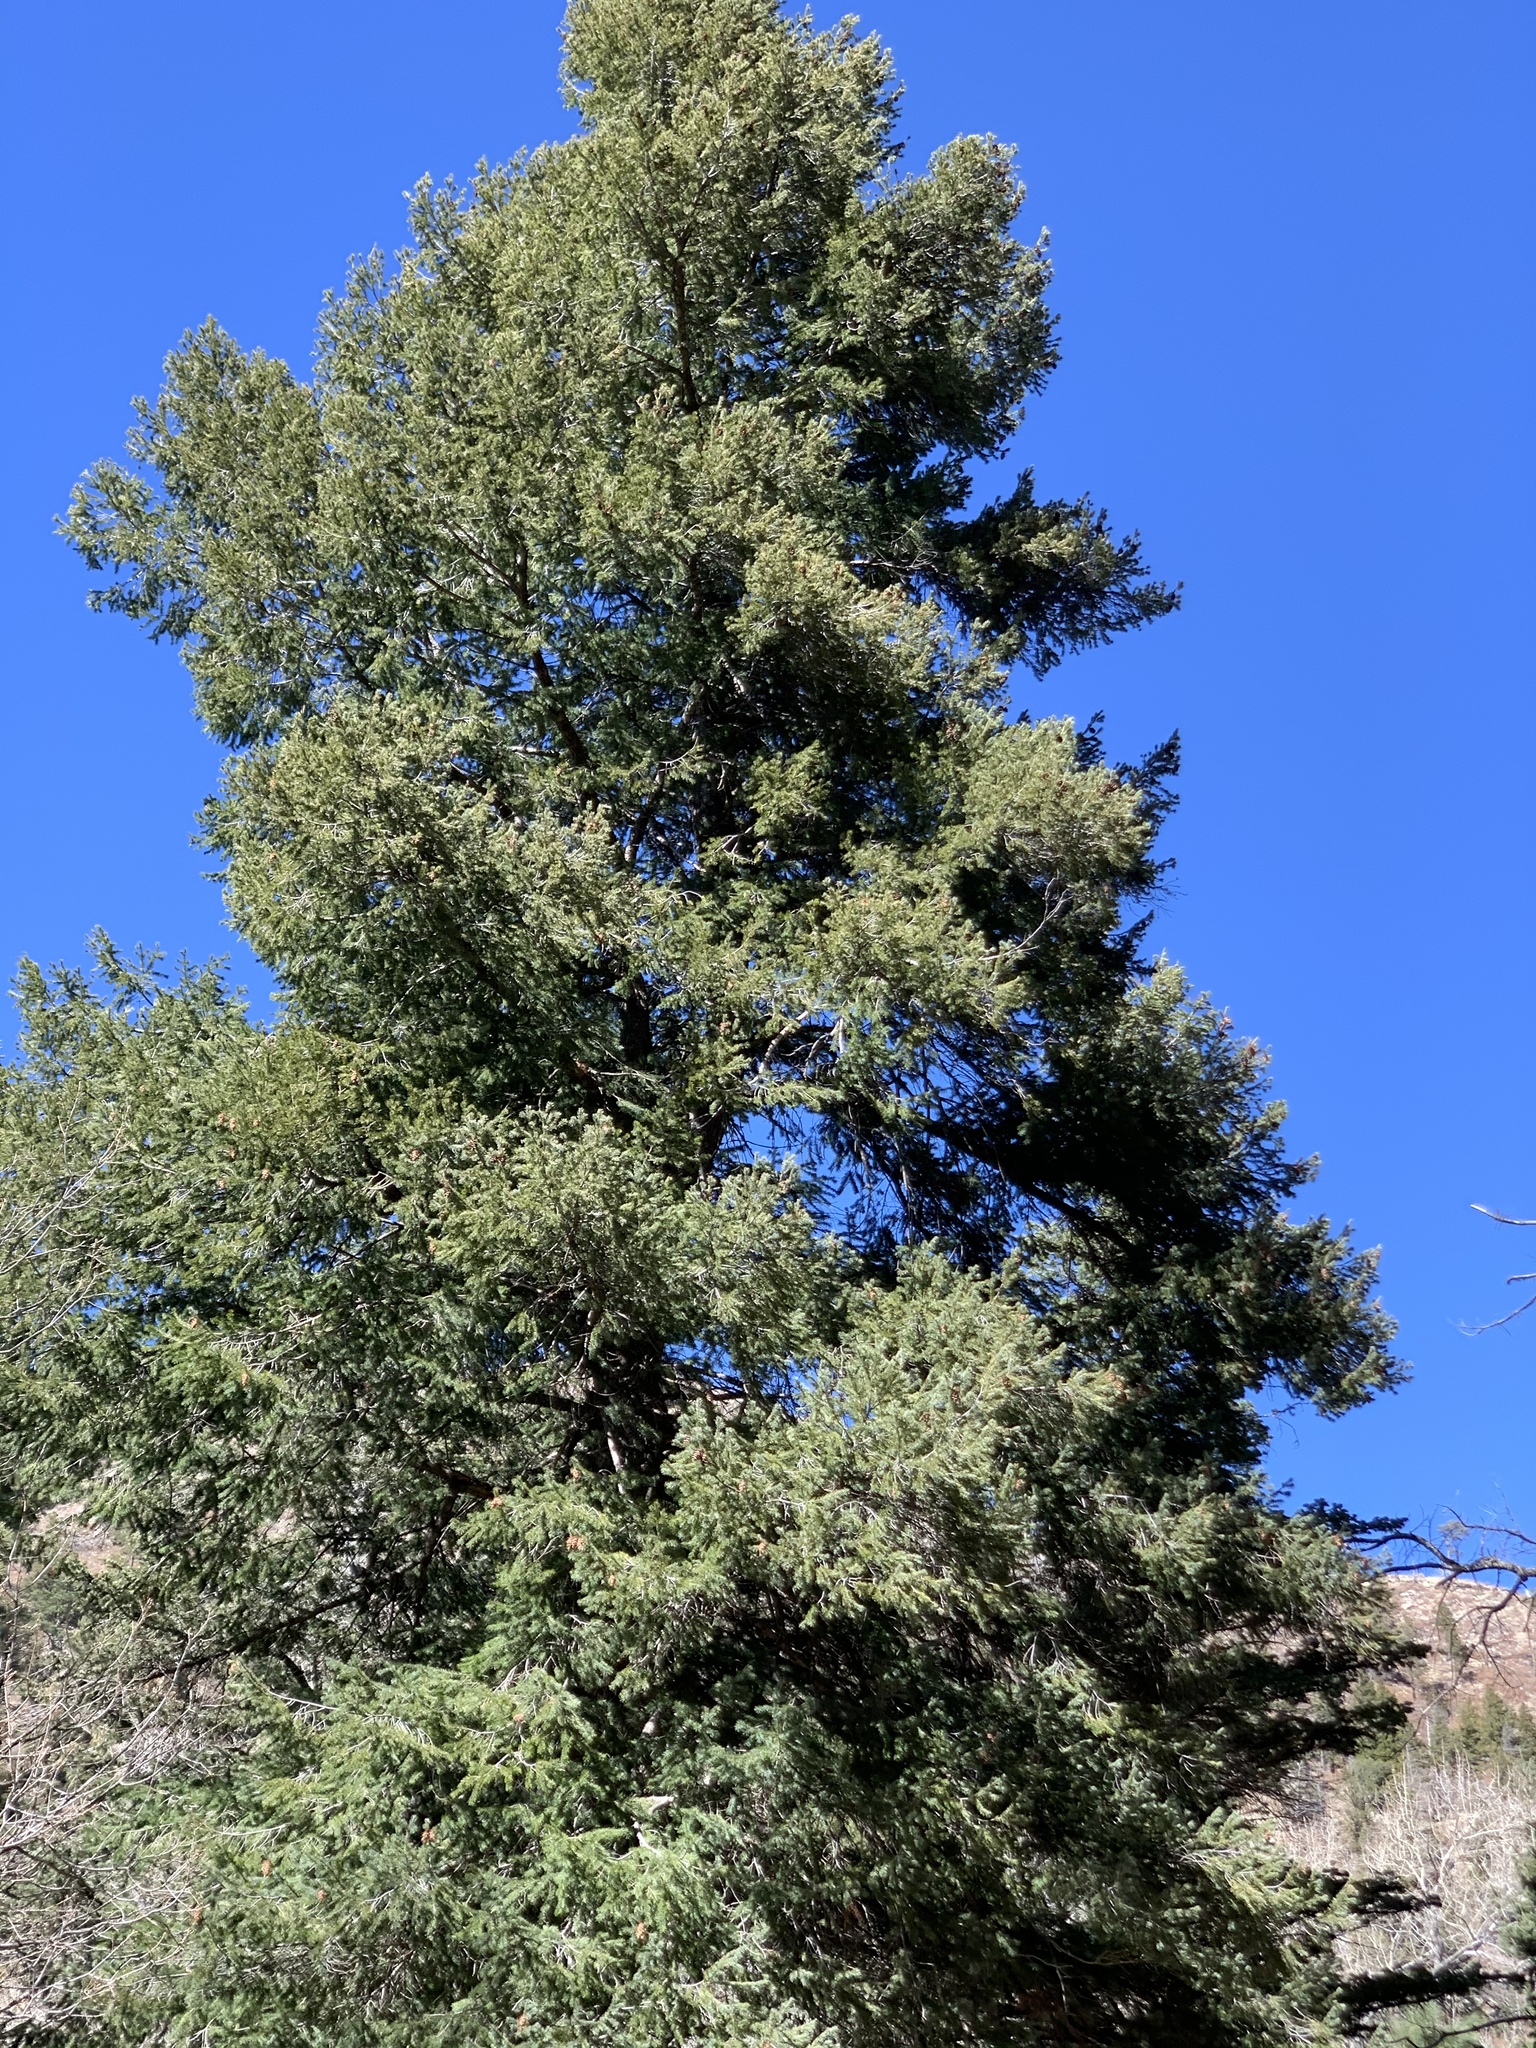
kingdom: Plantae
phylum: Tracheophyta
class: Pinopsida
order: Pinales
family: Pinaceae
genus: Pseudotsuga
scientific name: Pseudotsuga menziesii
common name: Douglas fir
